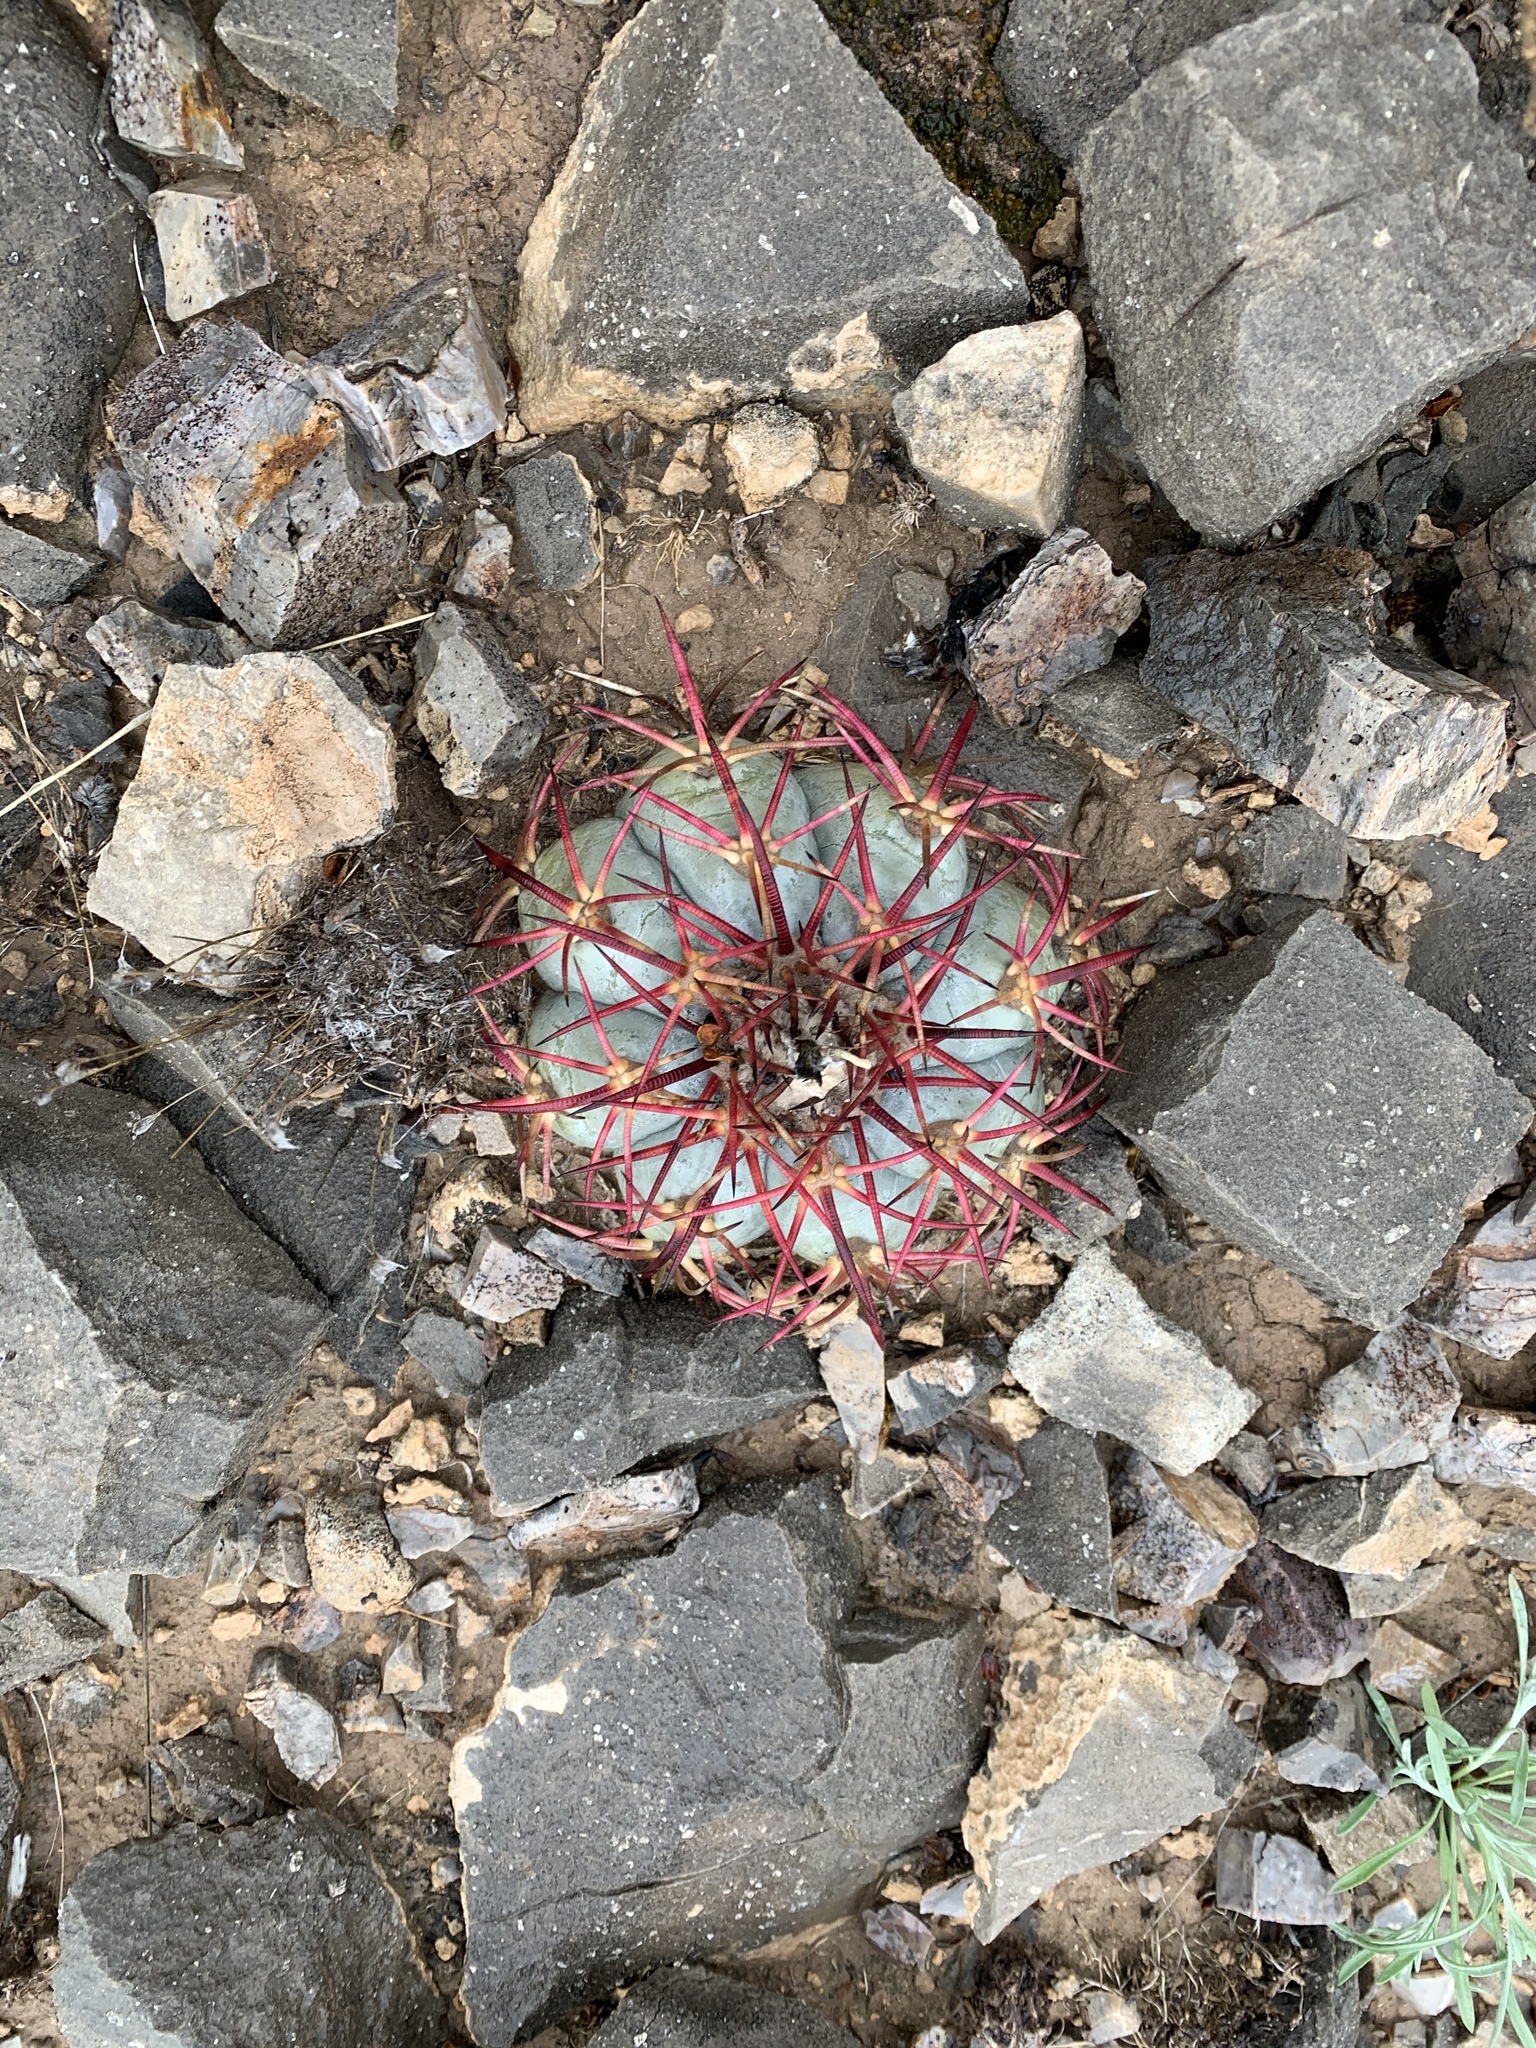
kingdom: Plantae
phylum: Tracheophyta
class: Magnoliopsida
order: Caryophyllales
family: Cactaceae
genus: Echinocactus
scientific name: Echinocactus horizonthalonius
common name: Devilshead
